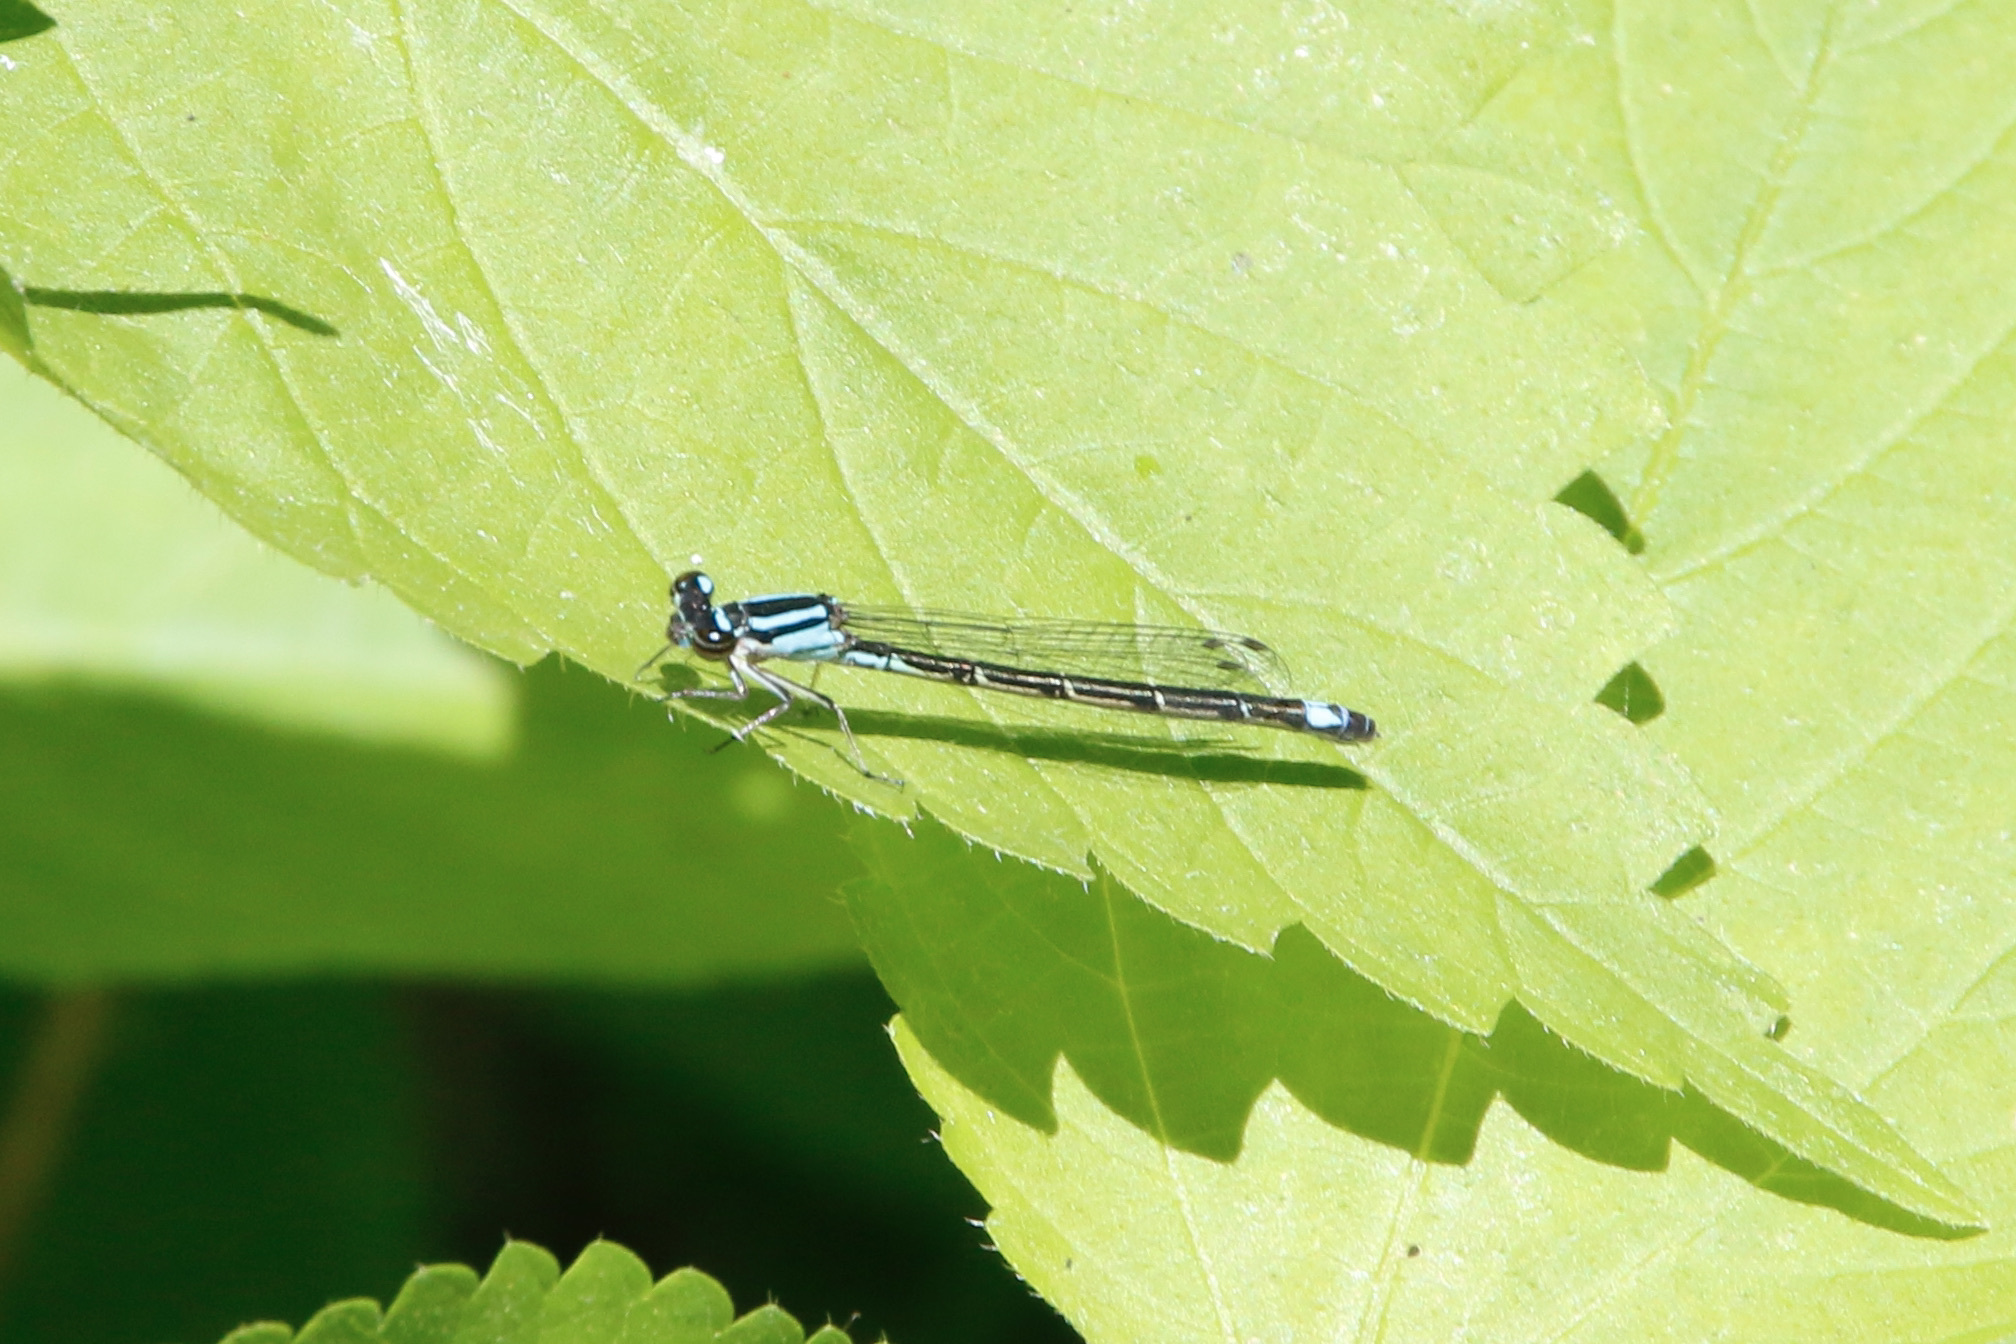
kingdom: Animalia
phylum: Arthropoda
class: Insecta
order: Odonata
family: Coenagrionidae
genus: Enallagma
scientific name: Enallagma geminatum
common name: Skimming bluet
